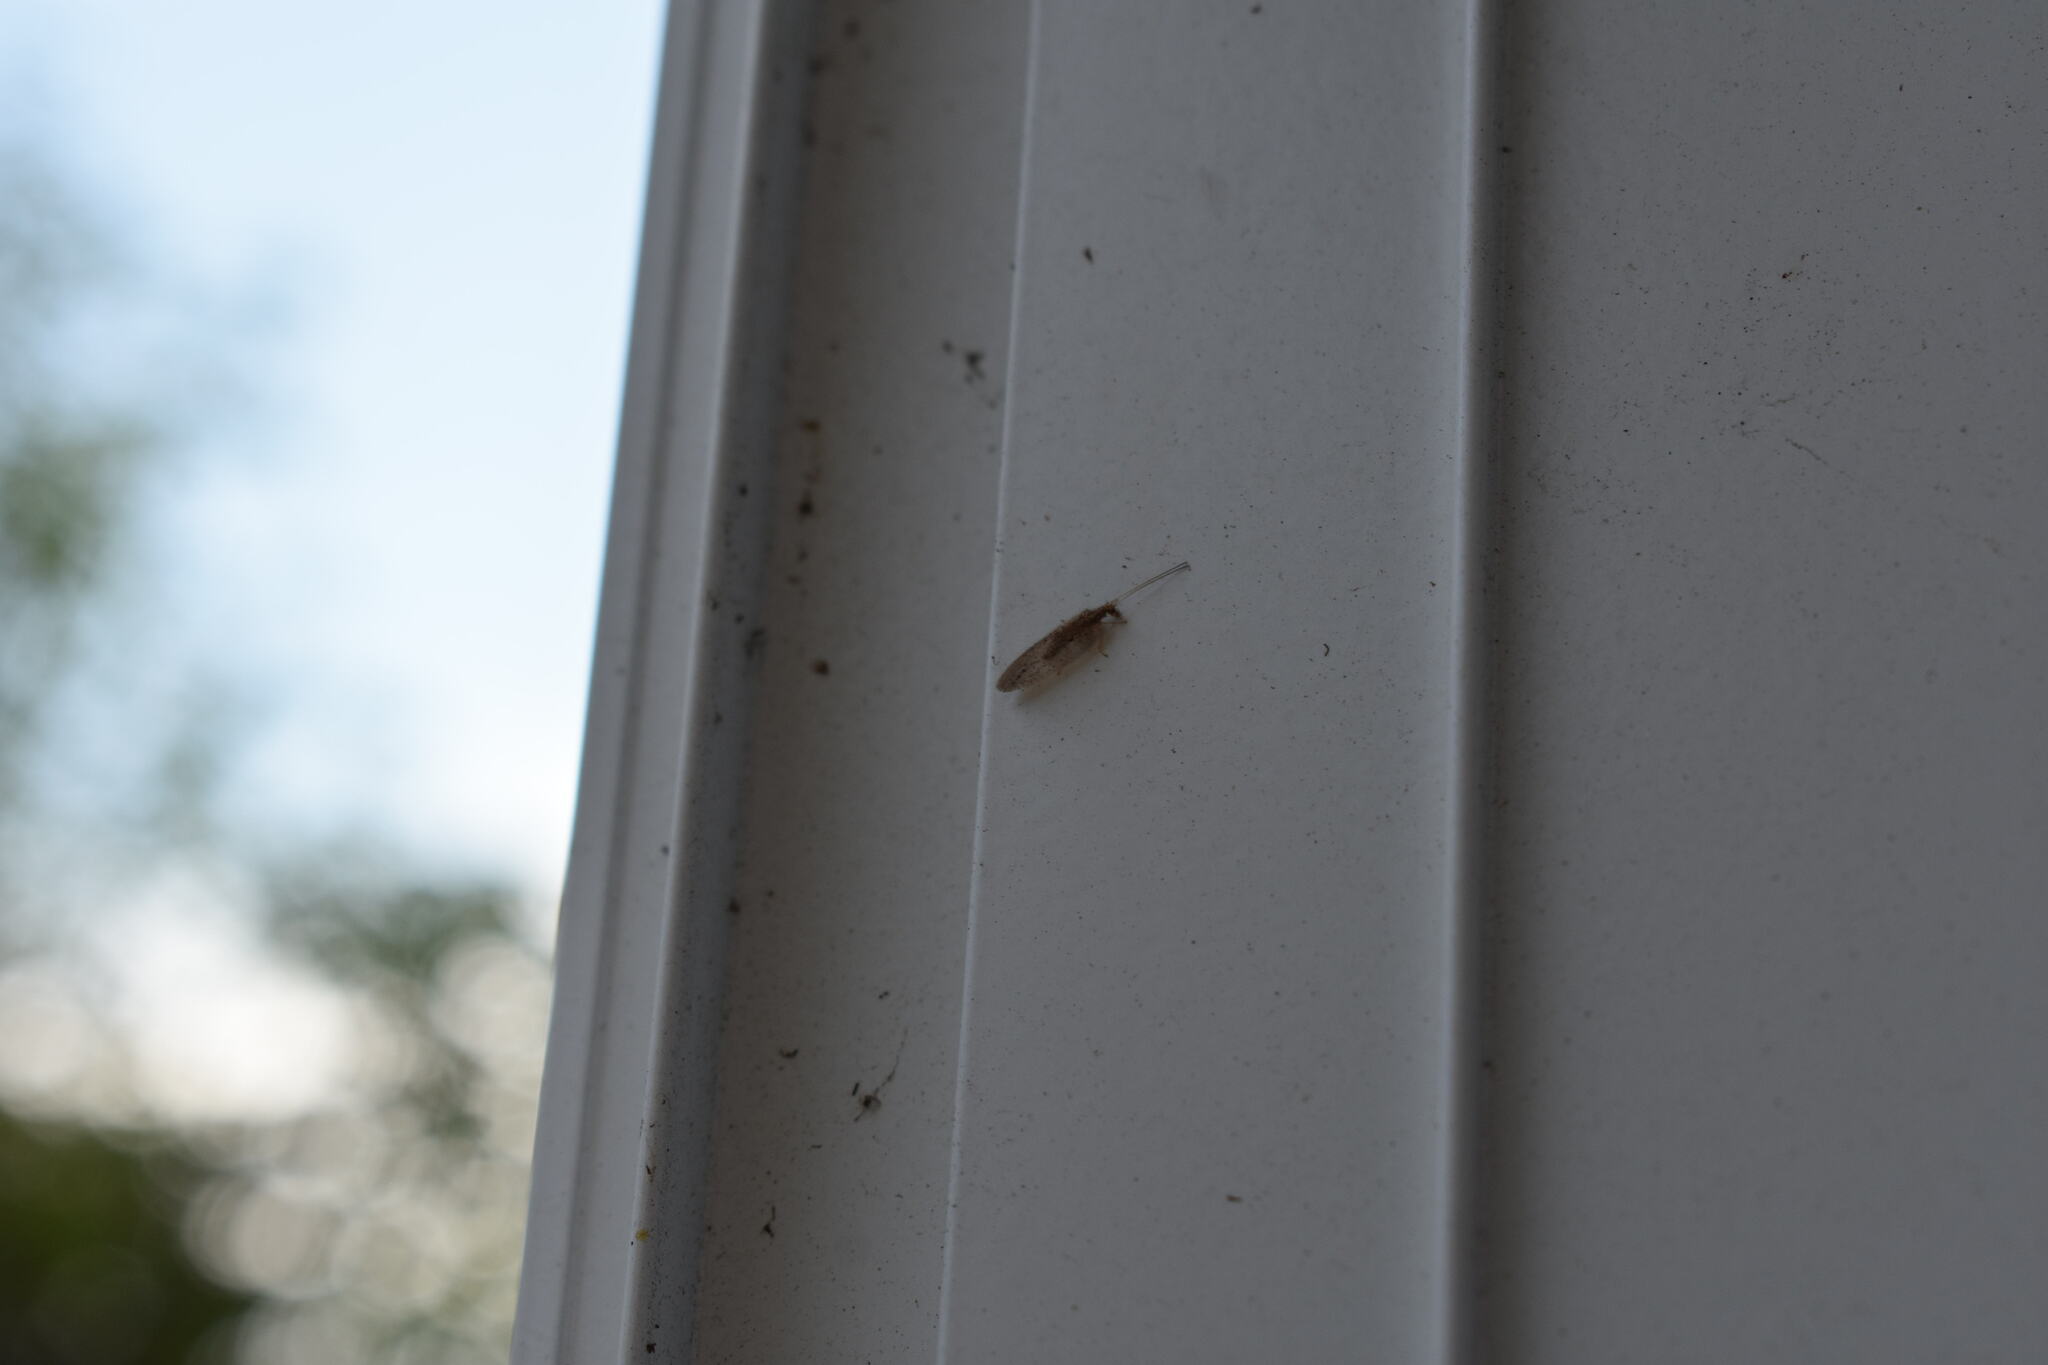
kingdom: Animalia
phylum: Arthropoda
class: Insecta
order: Neuroptera
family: Hemerobiidae
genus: Micromus
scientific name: Micromus subanticus
